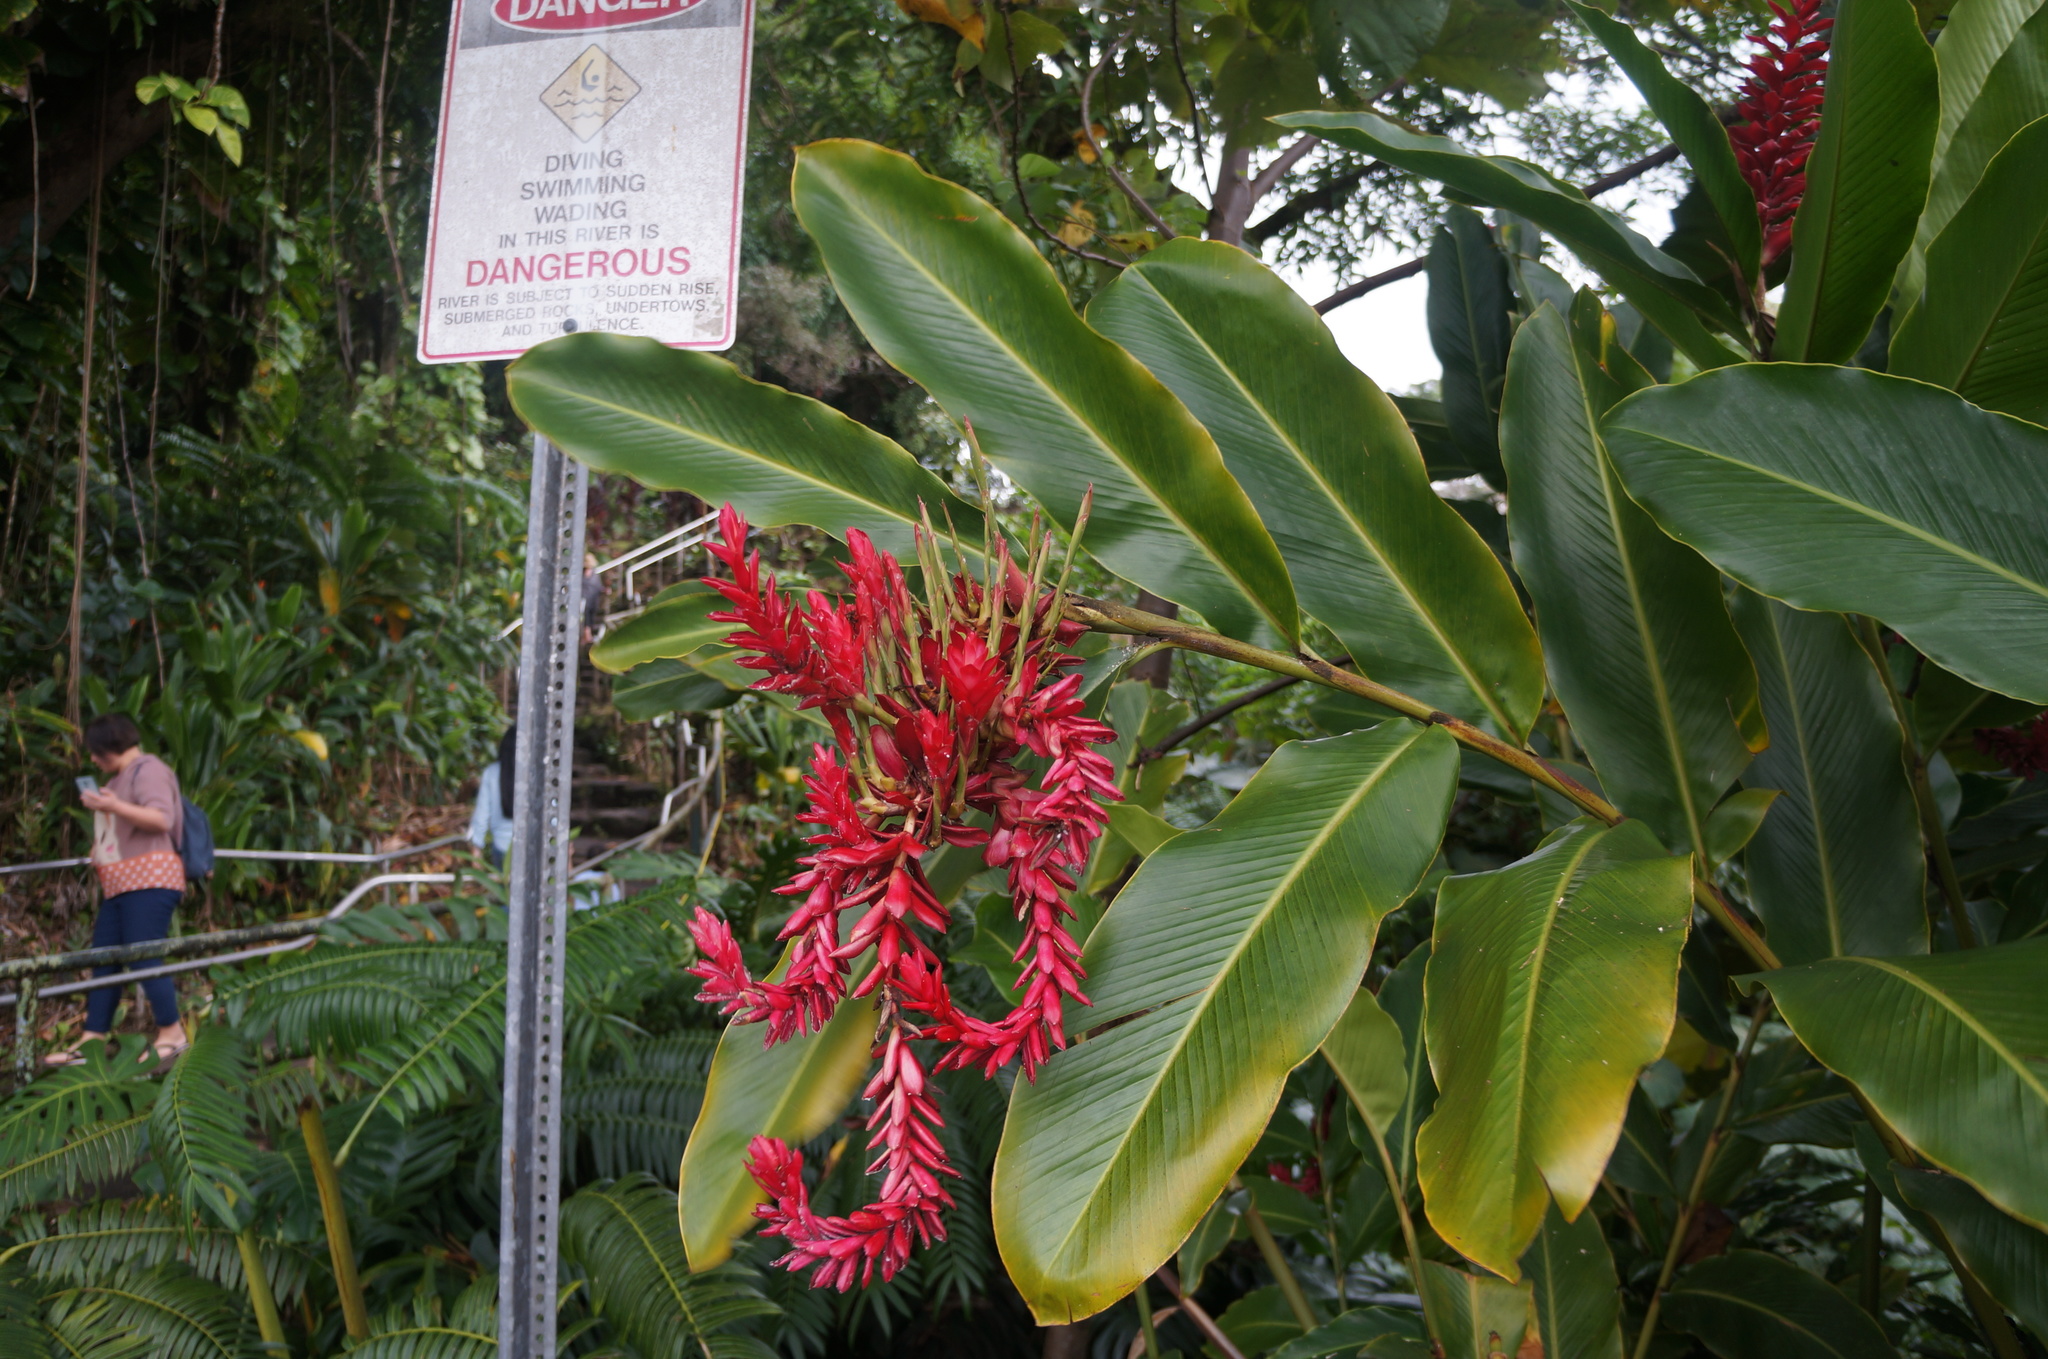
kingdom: Plantae
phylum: Tracheophyta
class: Liliopsida
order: Zingiberales
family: Zingiberaceae
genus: Alpinia
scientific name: Alpinia purpurata
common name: Red ginger
